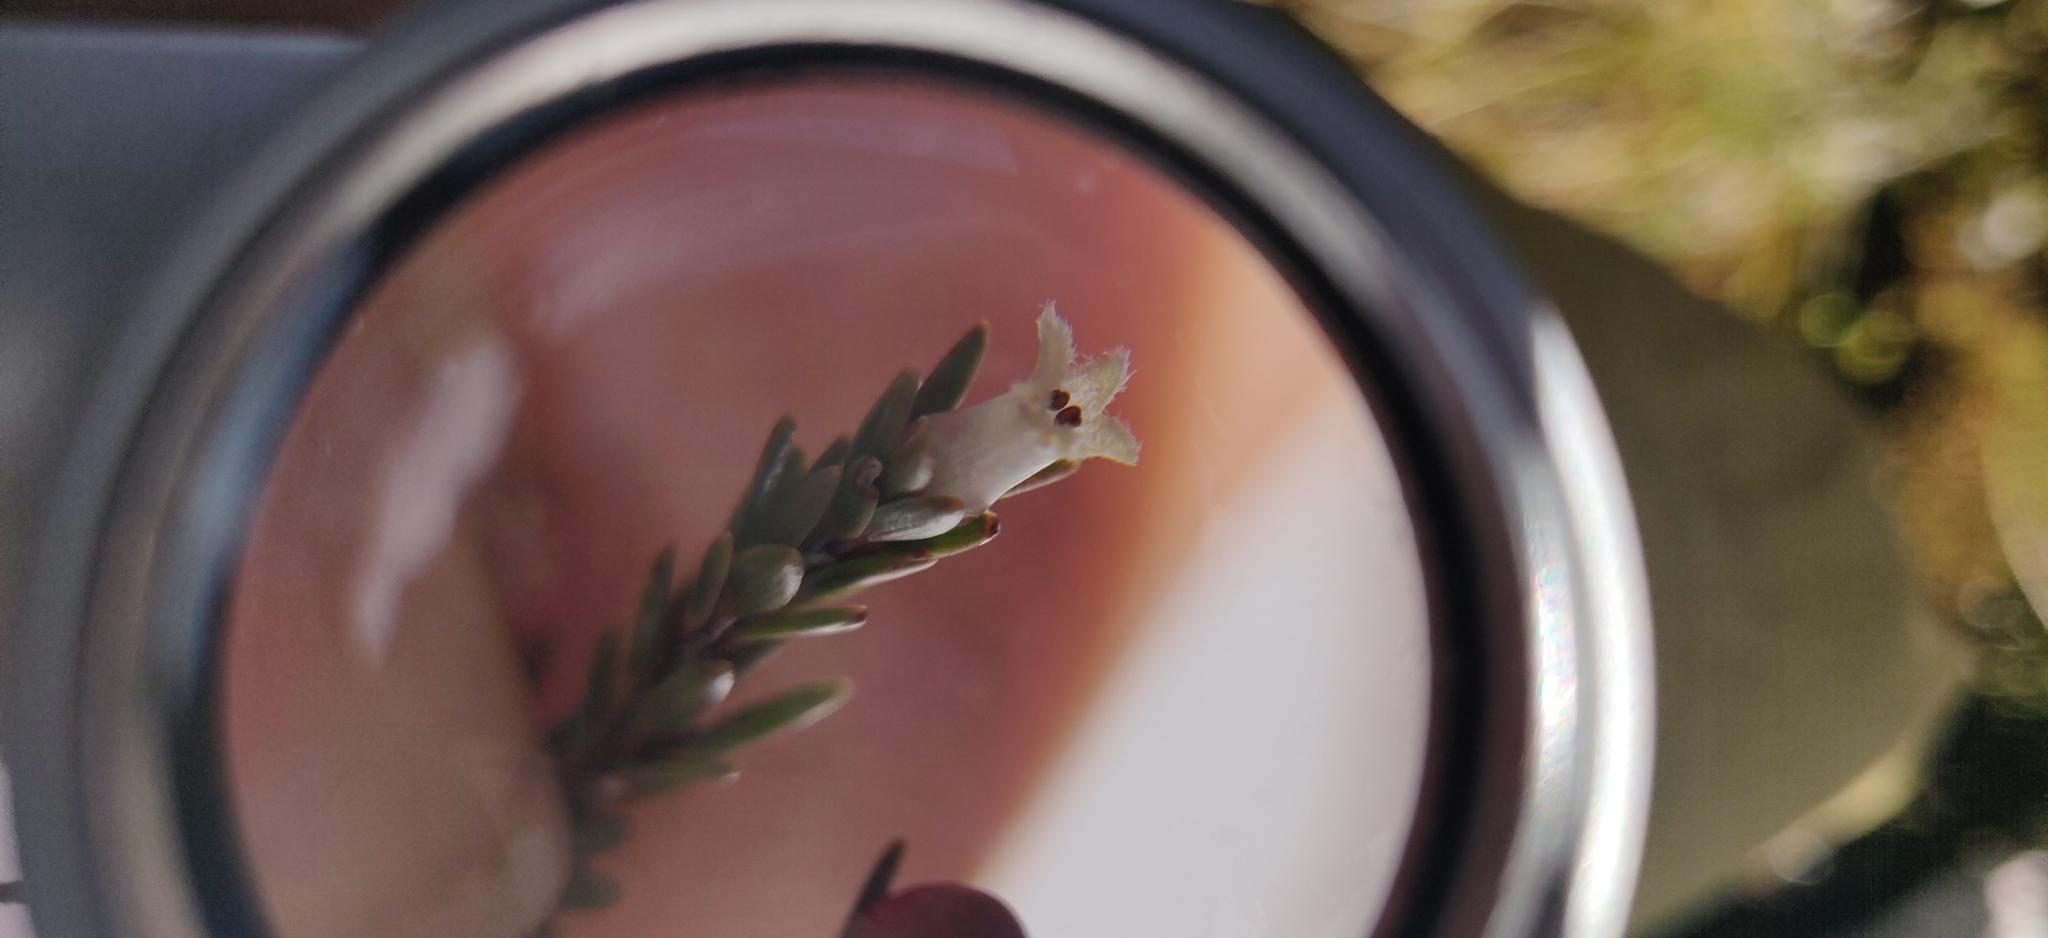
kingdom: Plantae
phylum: Tracheophyta
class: Magnoliopsida
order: Ericales
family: Ericaceae
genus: Pentachondra
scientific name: Pentachondra pumila
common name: Carpet-heath
